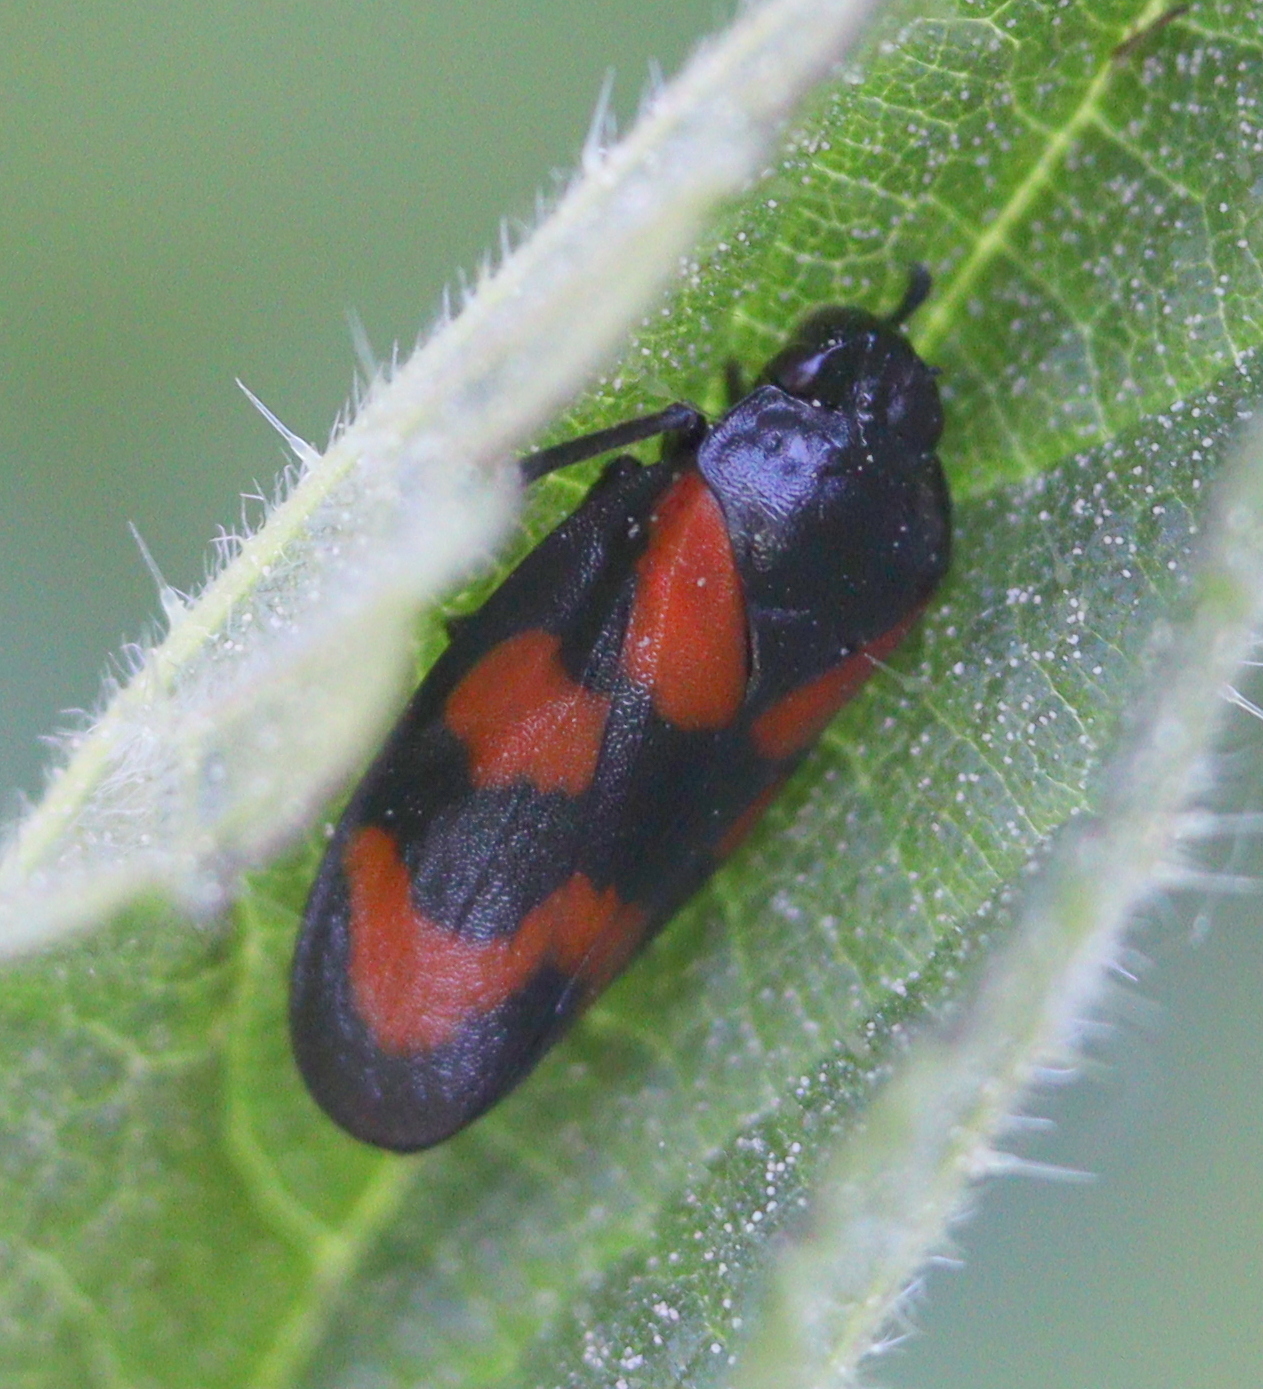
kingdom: Animalia
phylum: Arthropoda
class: Insecta
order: Hemiptera
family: Cercopidae
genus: Cercopis
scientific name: Cercopis vulnerata
